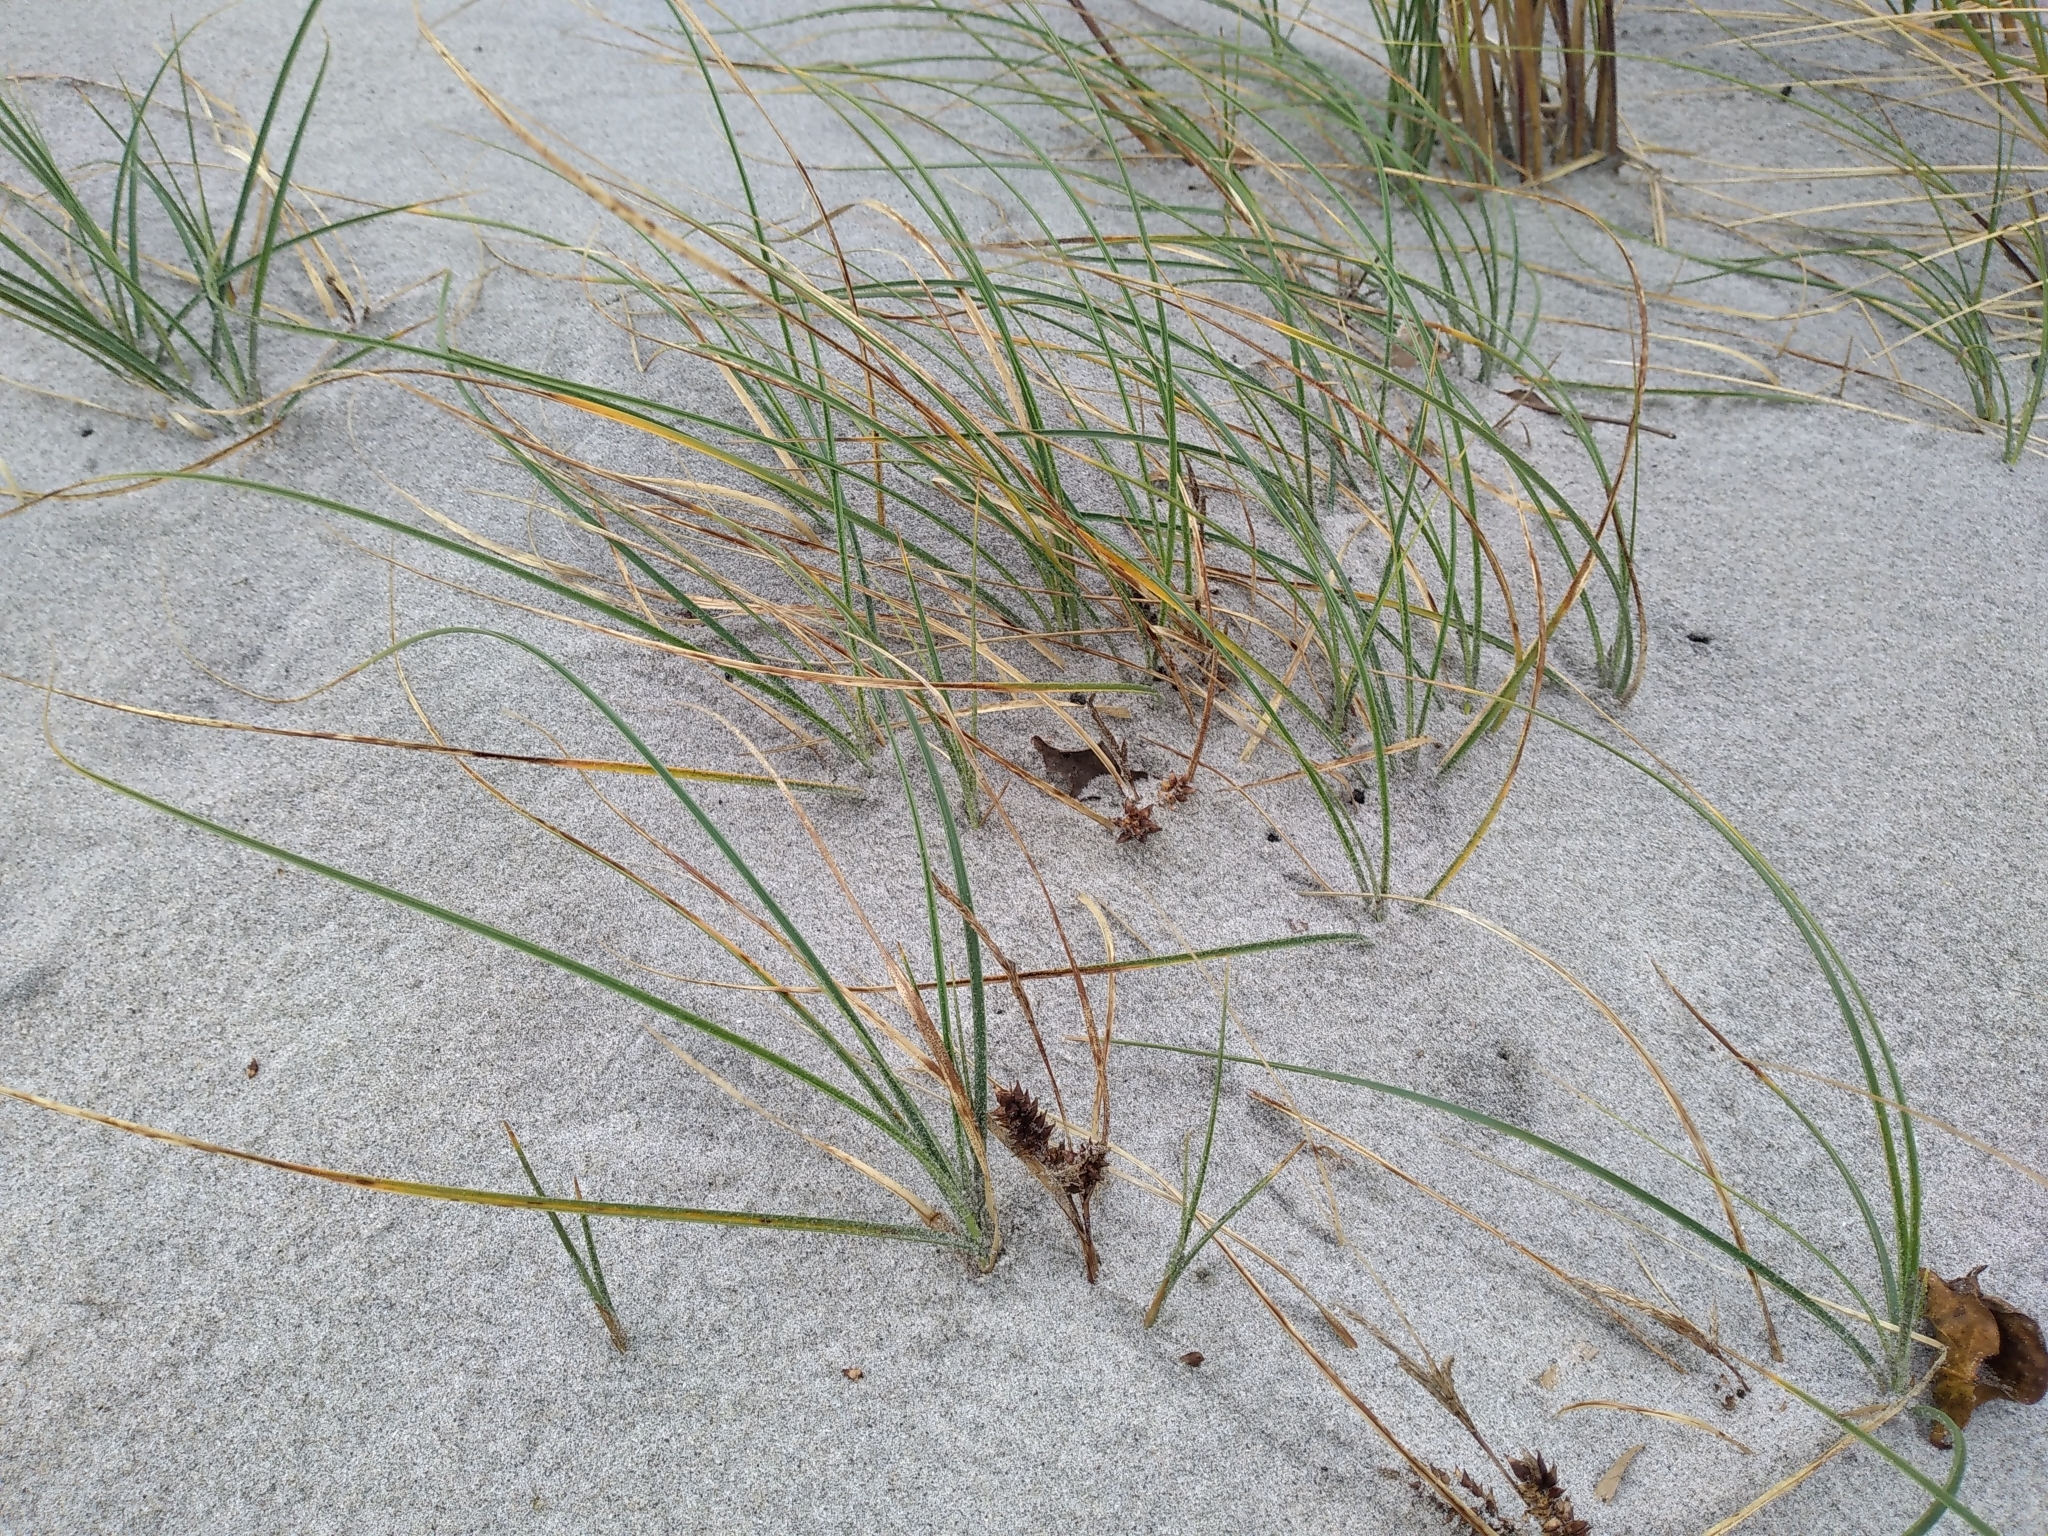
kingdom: Plantae
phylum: Tracheophyta
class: Liliopsida
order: Poales
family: Cyperaceae
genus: Carex
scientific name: Carex pumila
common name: Dwarf sedge
